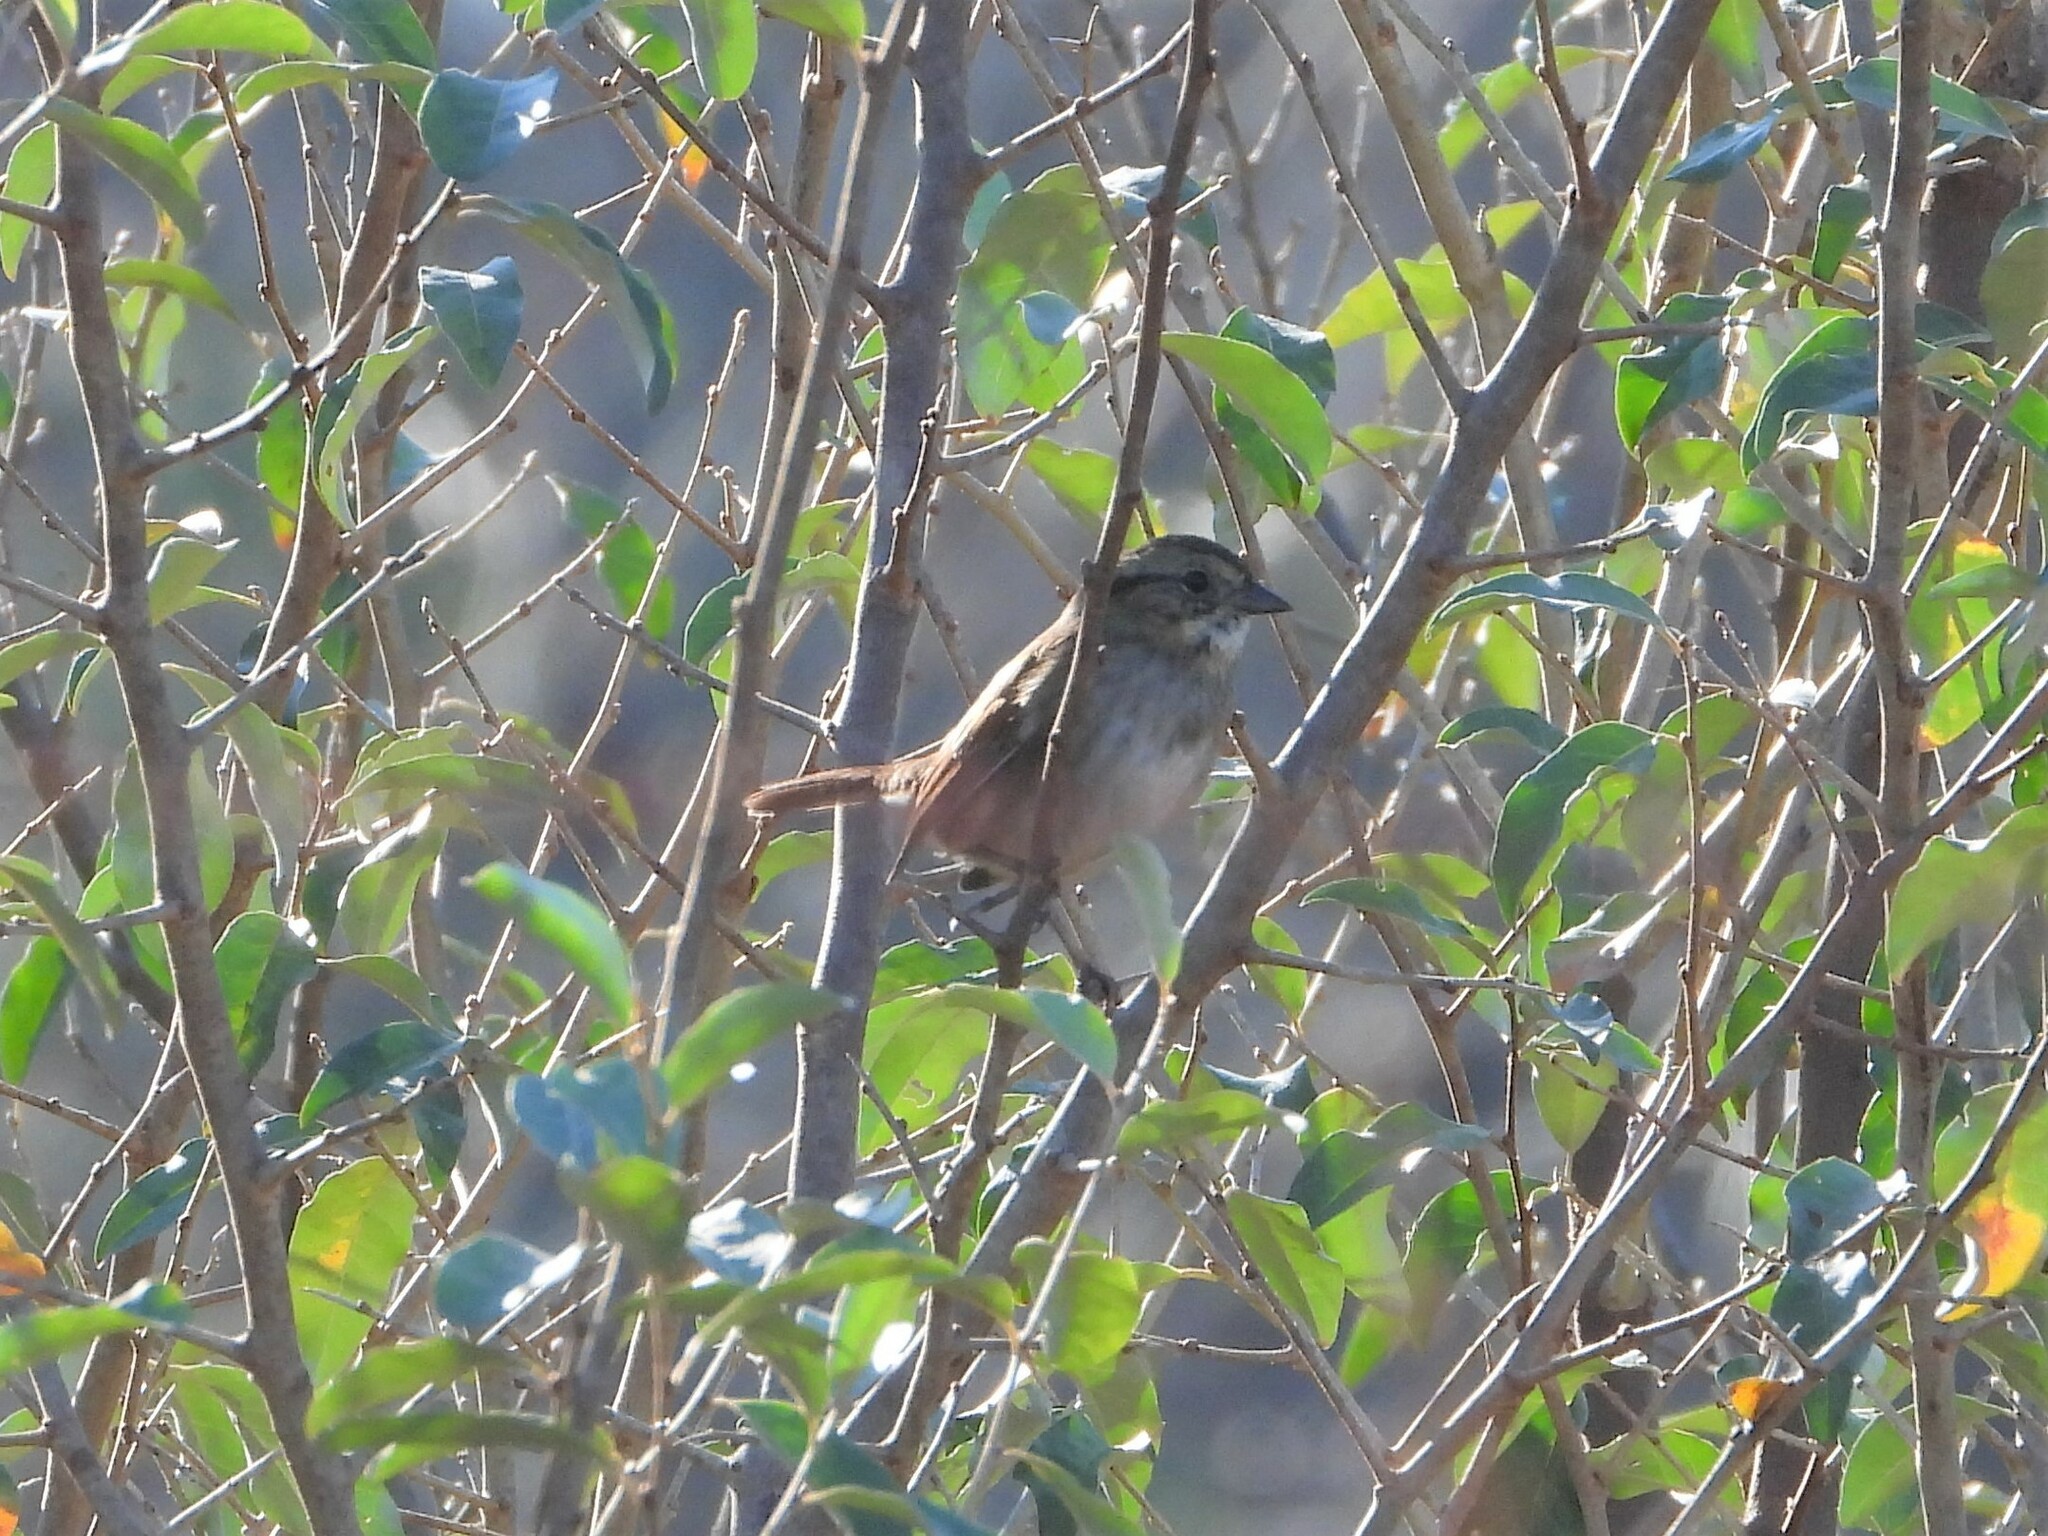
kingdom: Animalia
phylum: Chordata
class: Aves
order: Passeriformes
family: Passerellidae
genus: Melospiza
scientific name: Melospiza georgiana
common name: Swamp sparrow
